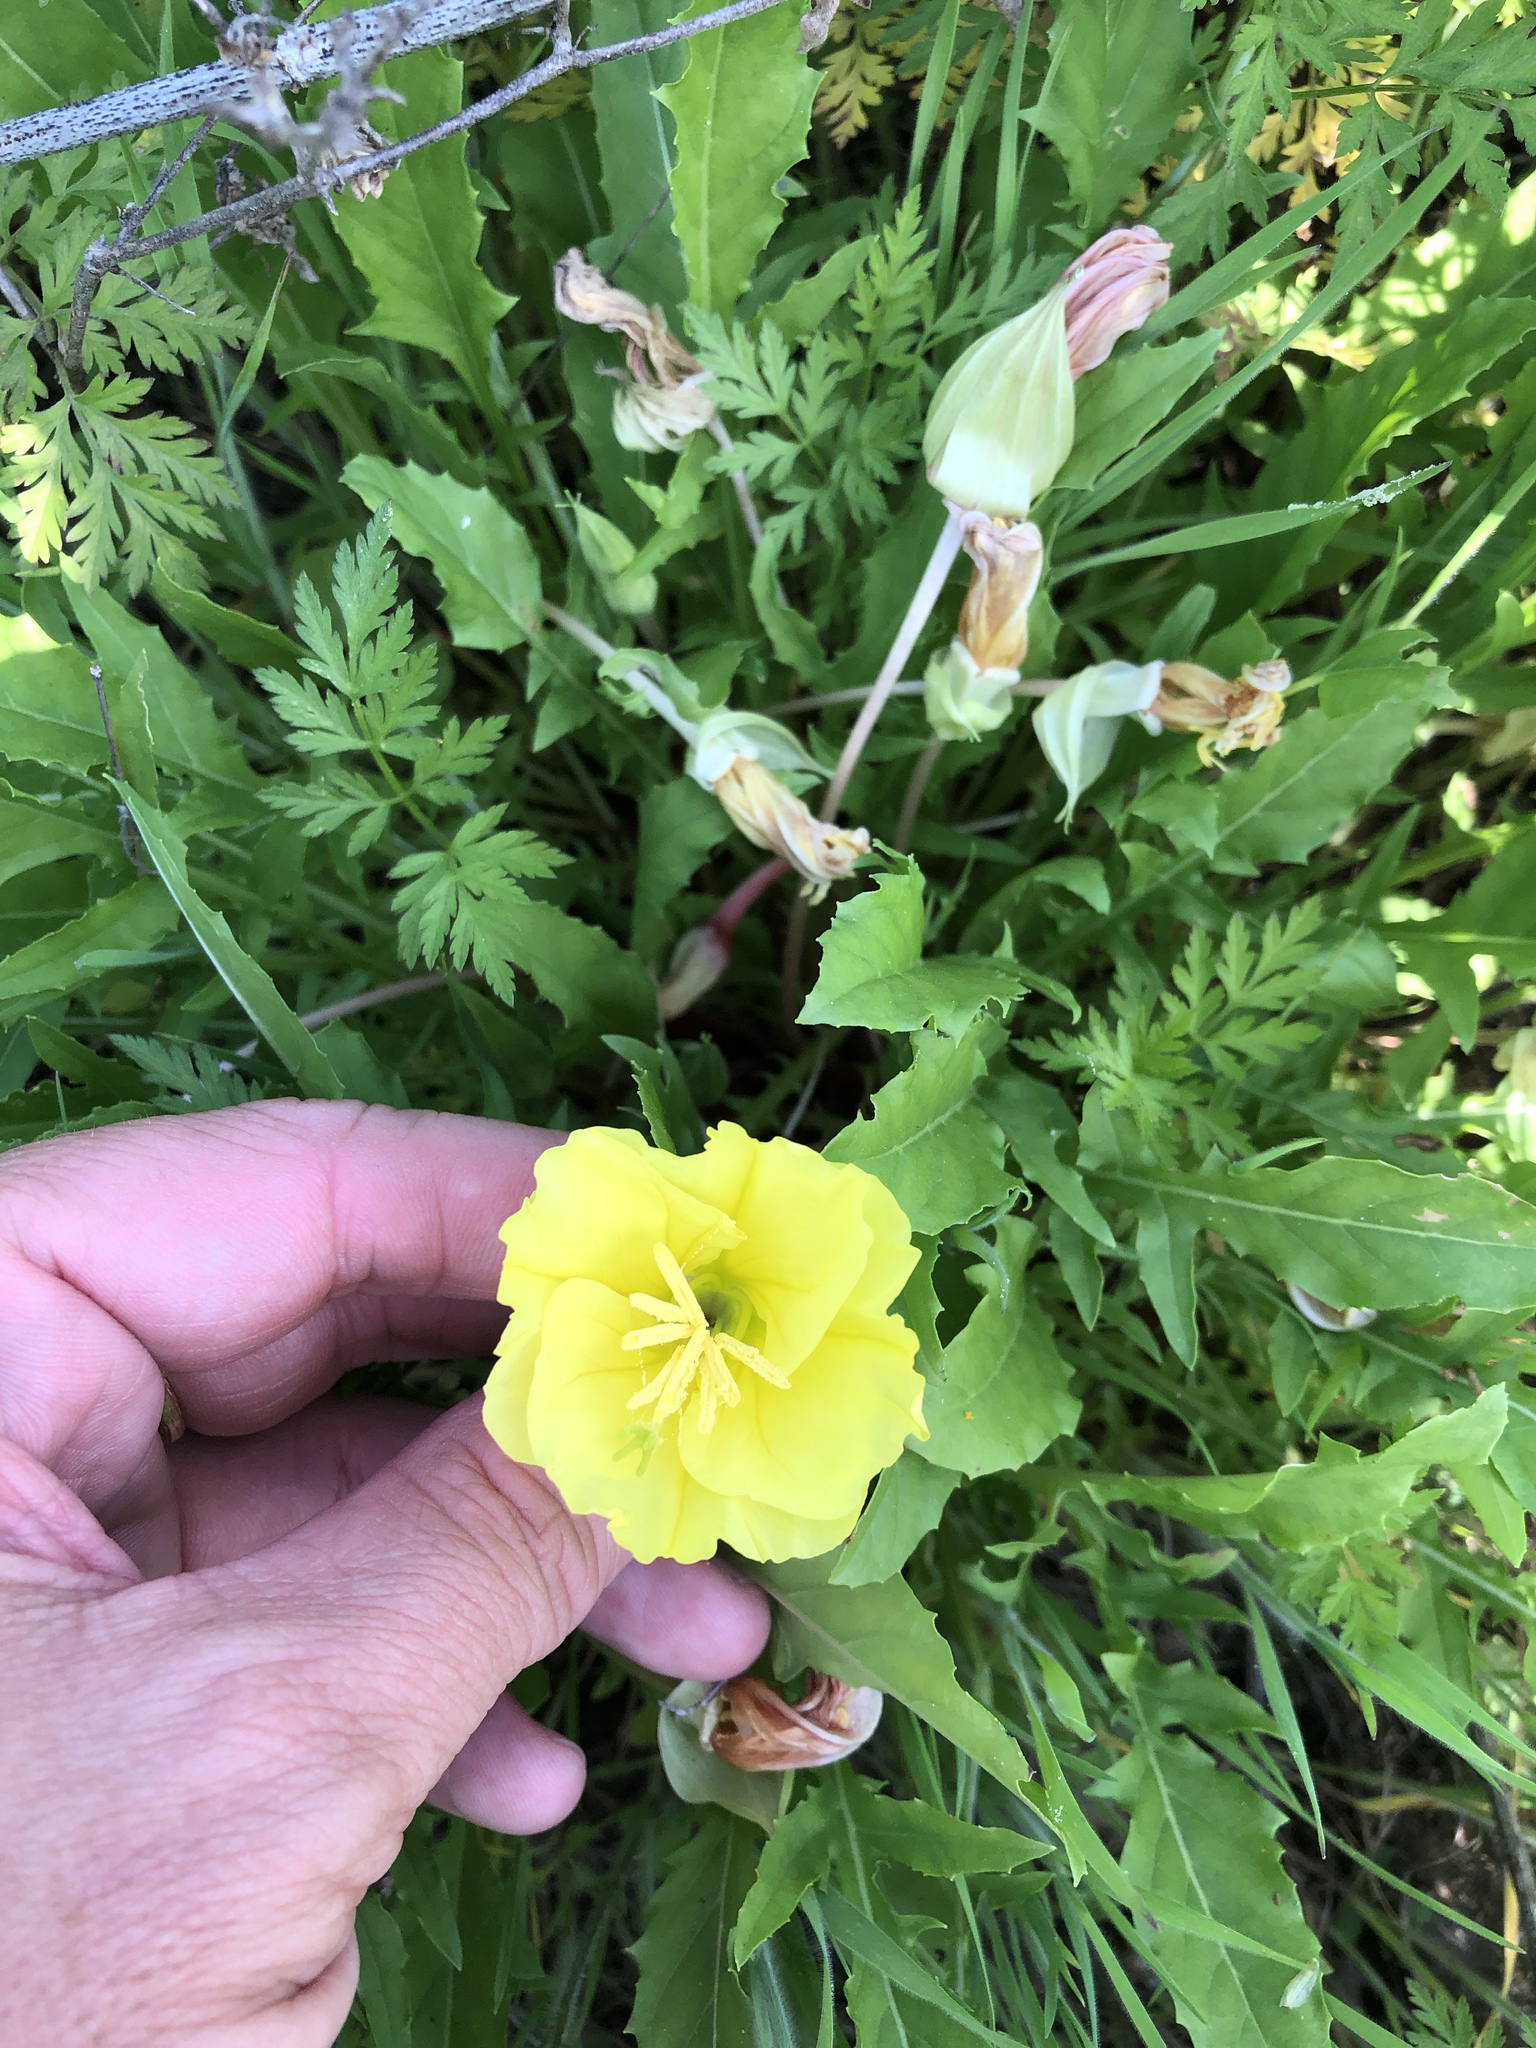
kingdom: Plantae
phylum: Tracheophyta
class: Magnoliopsida
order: Myrtales
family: Onagraceae
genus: Oenothera
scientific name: Oenothera triloba
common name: Sessile evening-primrose
